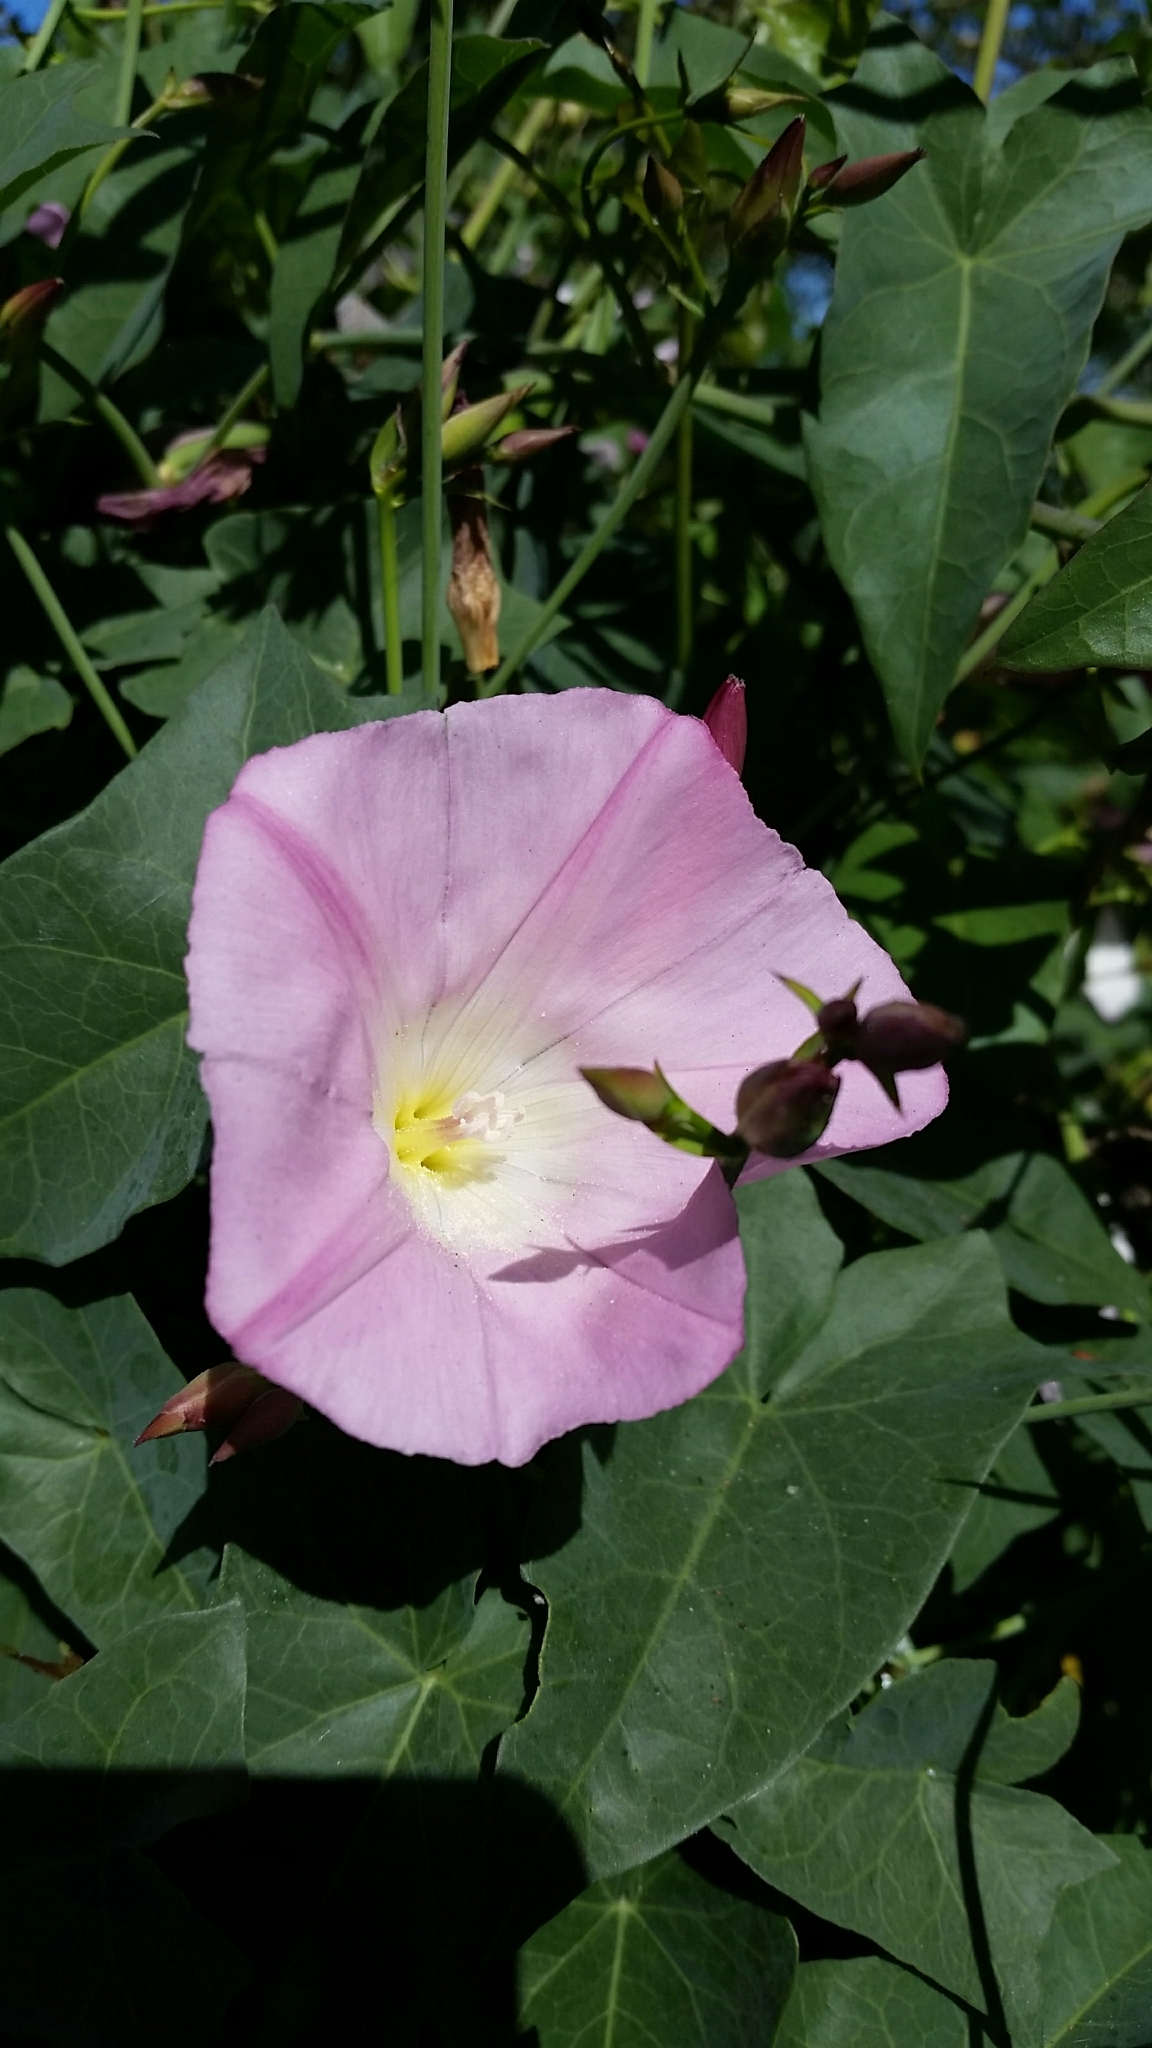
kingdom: Plantae
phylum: Tracheophyta
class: Magnoliopsida
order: Solanales
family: Convolvulaceae
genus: Calystegia
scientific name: Calystegia purpurata
